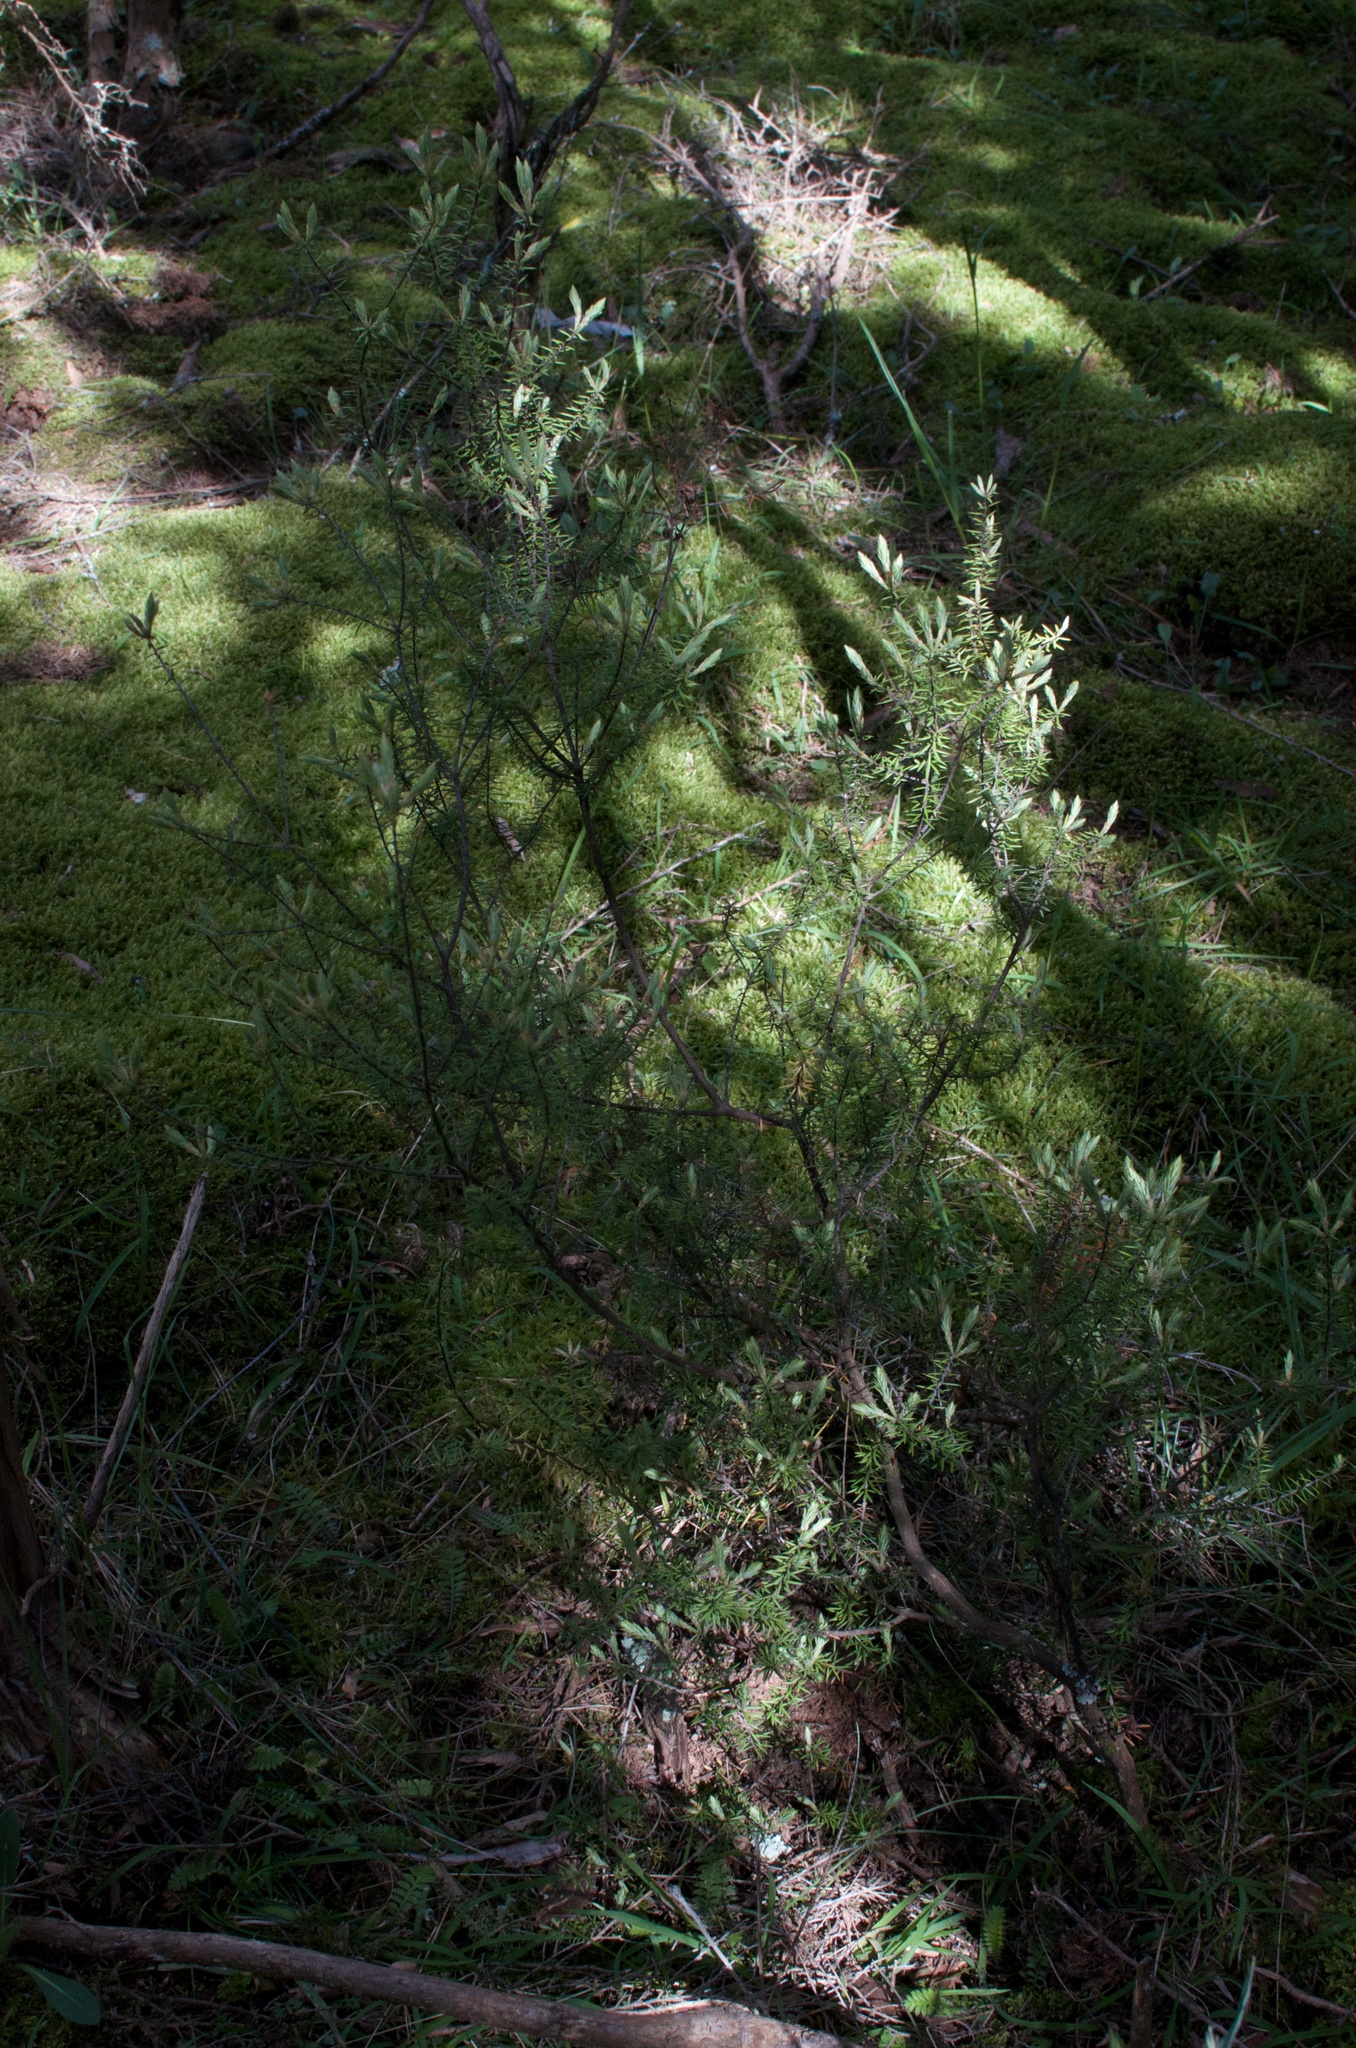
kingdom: Plantae
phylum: Tracheophyta
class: Magnoliopsida
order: Ericales
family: Ericaceae
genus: Leptecophylla
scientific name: Leptecophylla juniperina
